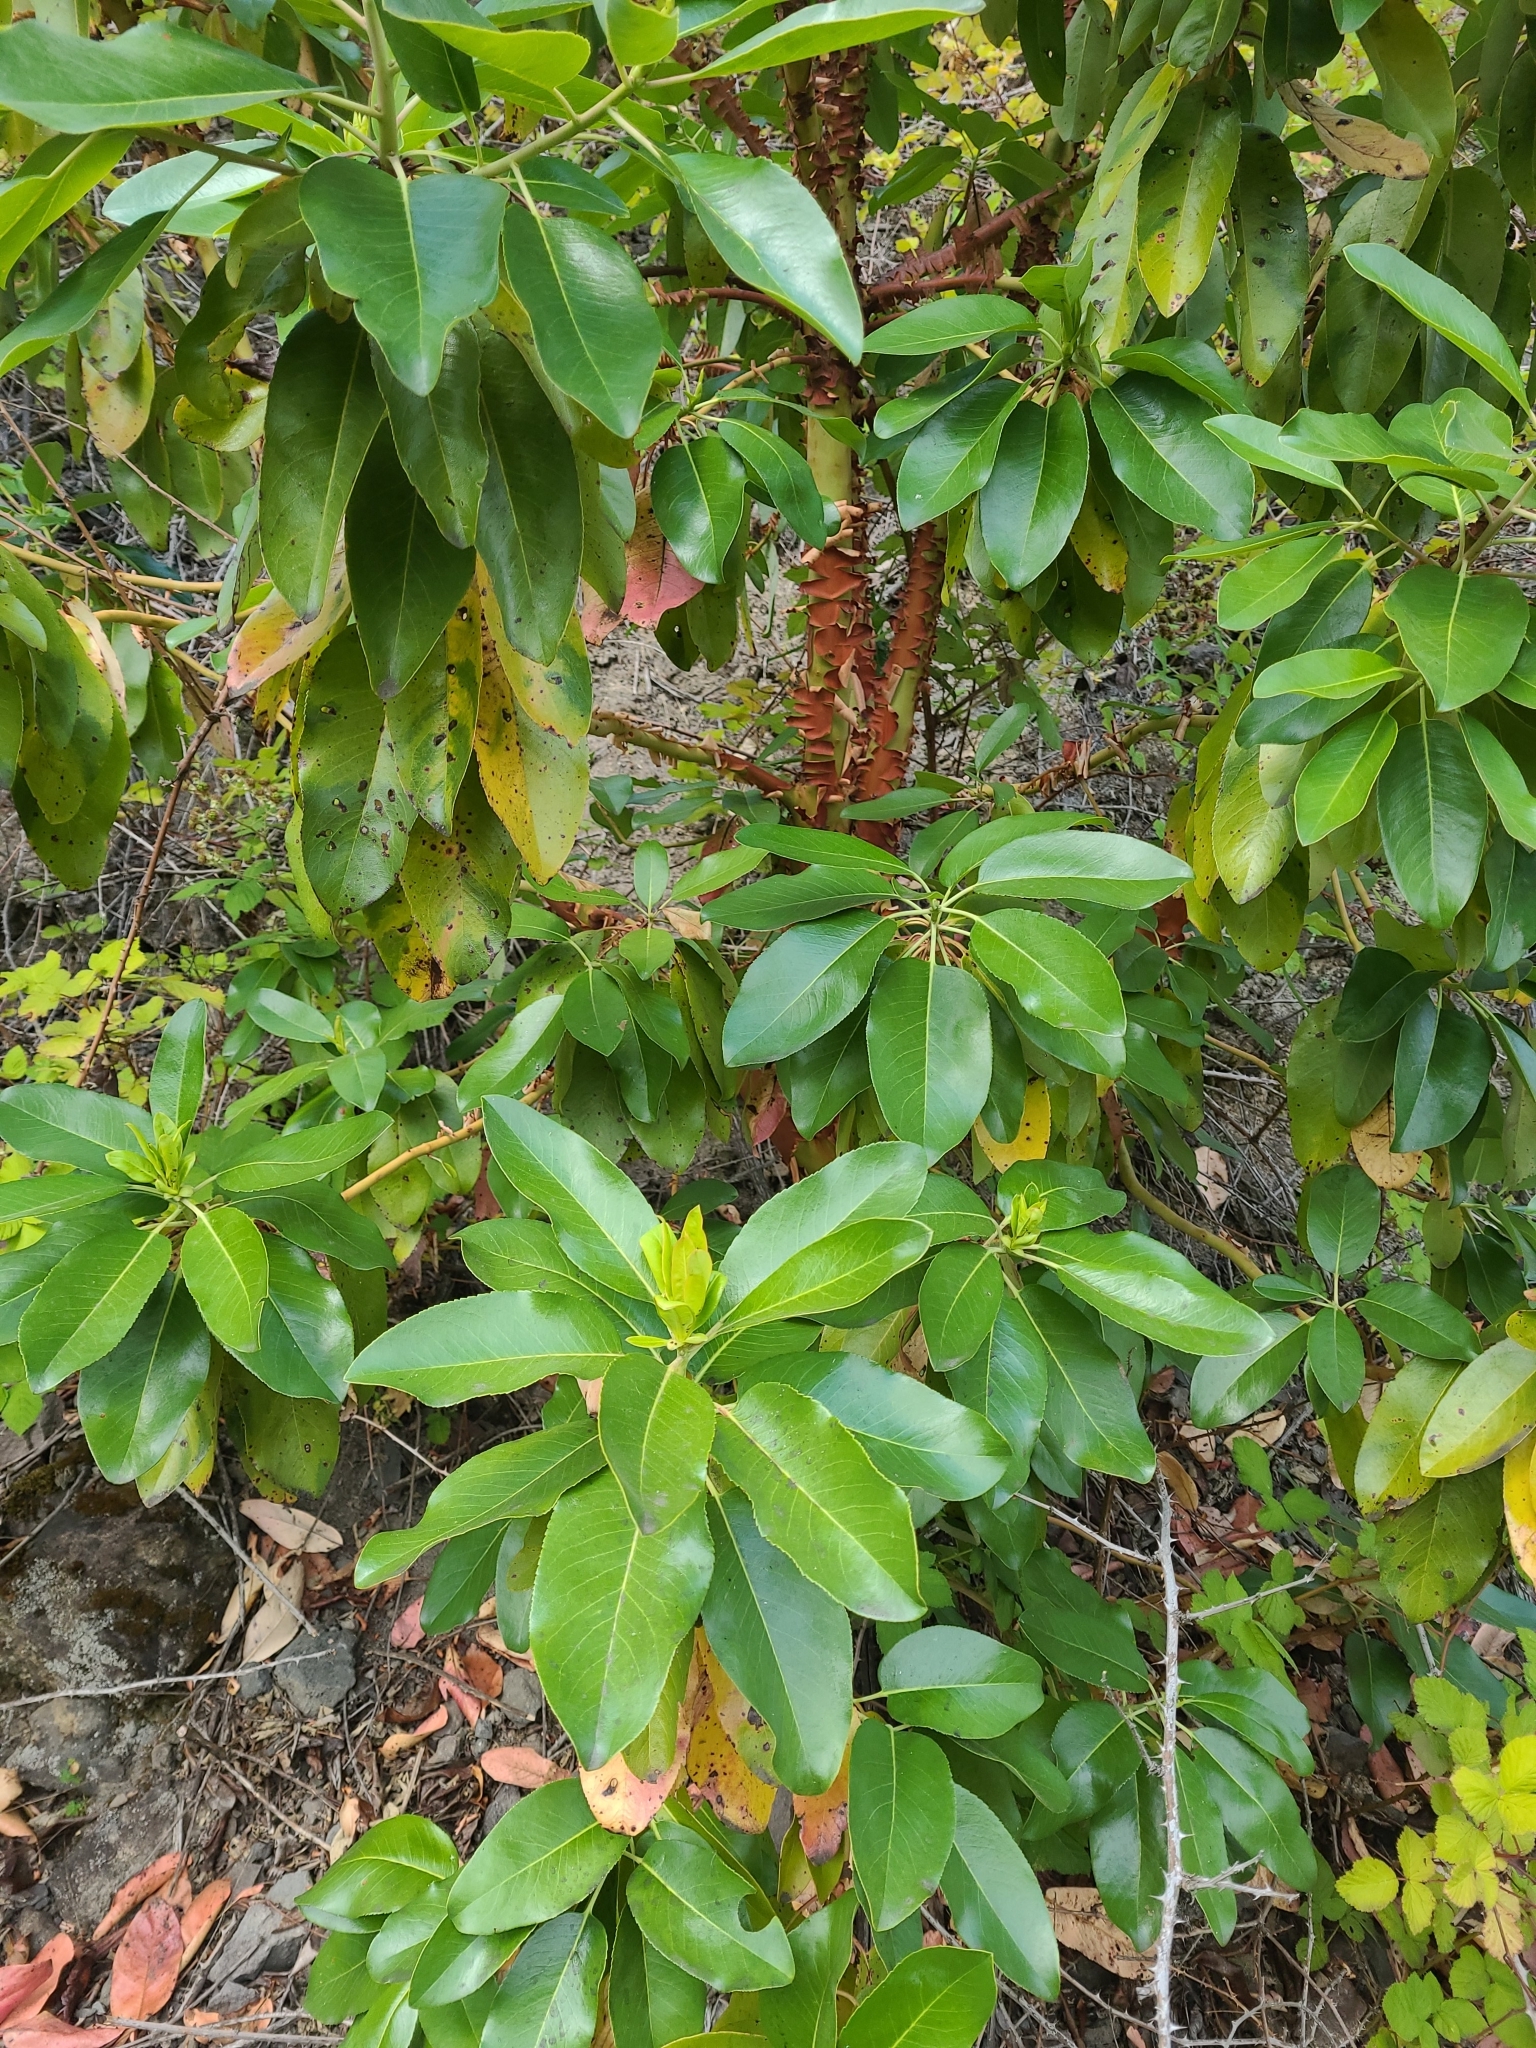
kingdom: Plantae
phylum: Tracheophyta
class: Magnoliopsida
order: Ericales
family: Ericaceae
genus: Arbutus
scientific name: Arbutus menziesii
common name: Pacific madrone
